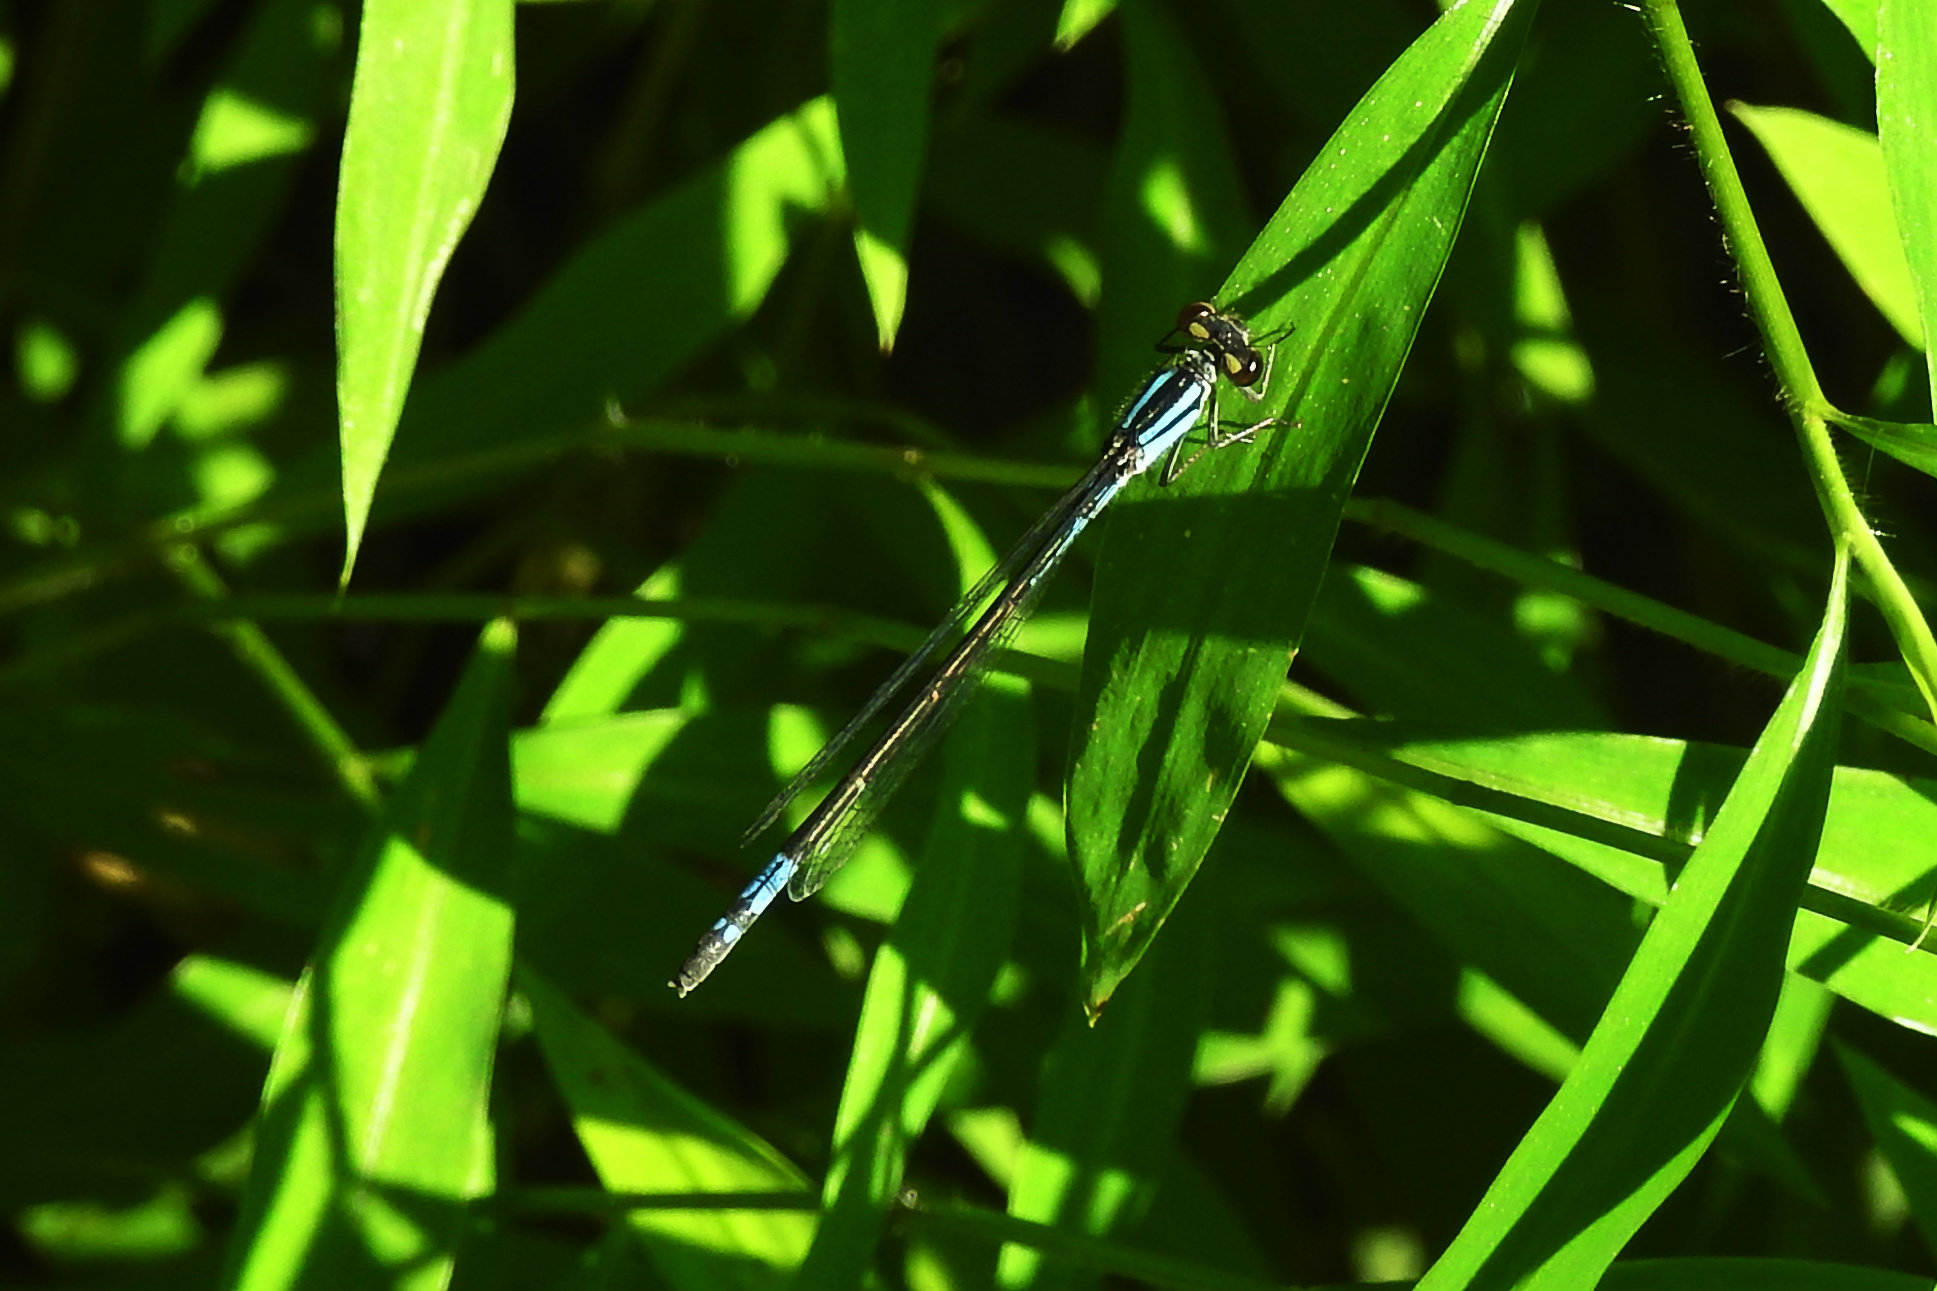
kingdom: Animalia
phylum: Arthropoda
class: Insecta
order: Odonata
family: Coenagrionidae
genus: Enallagma
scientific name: Enallagma aspersum
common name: Azure bluet
